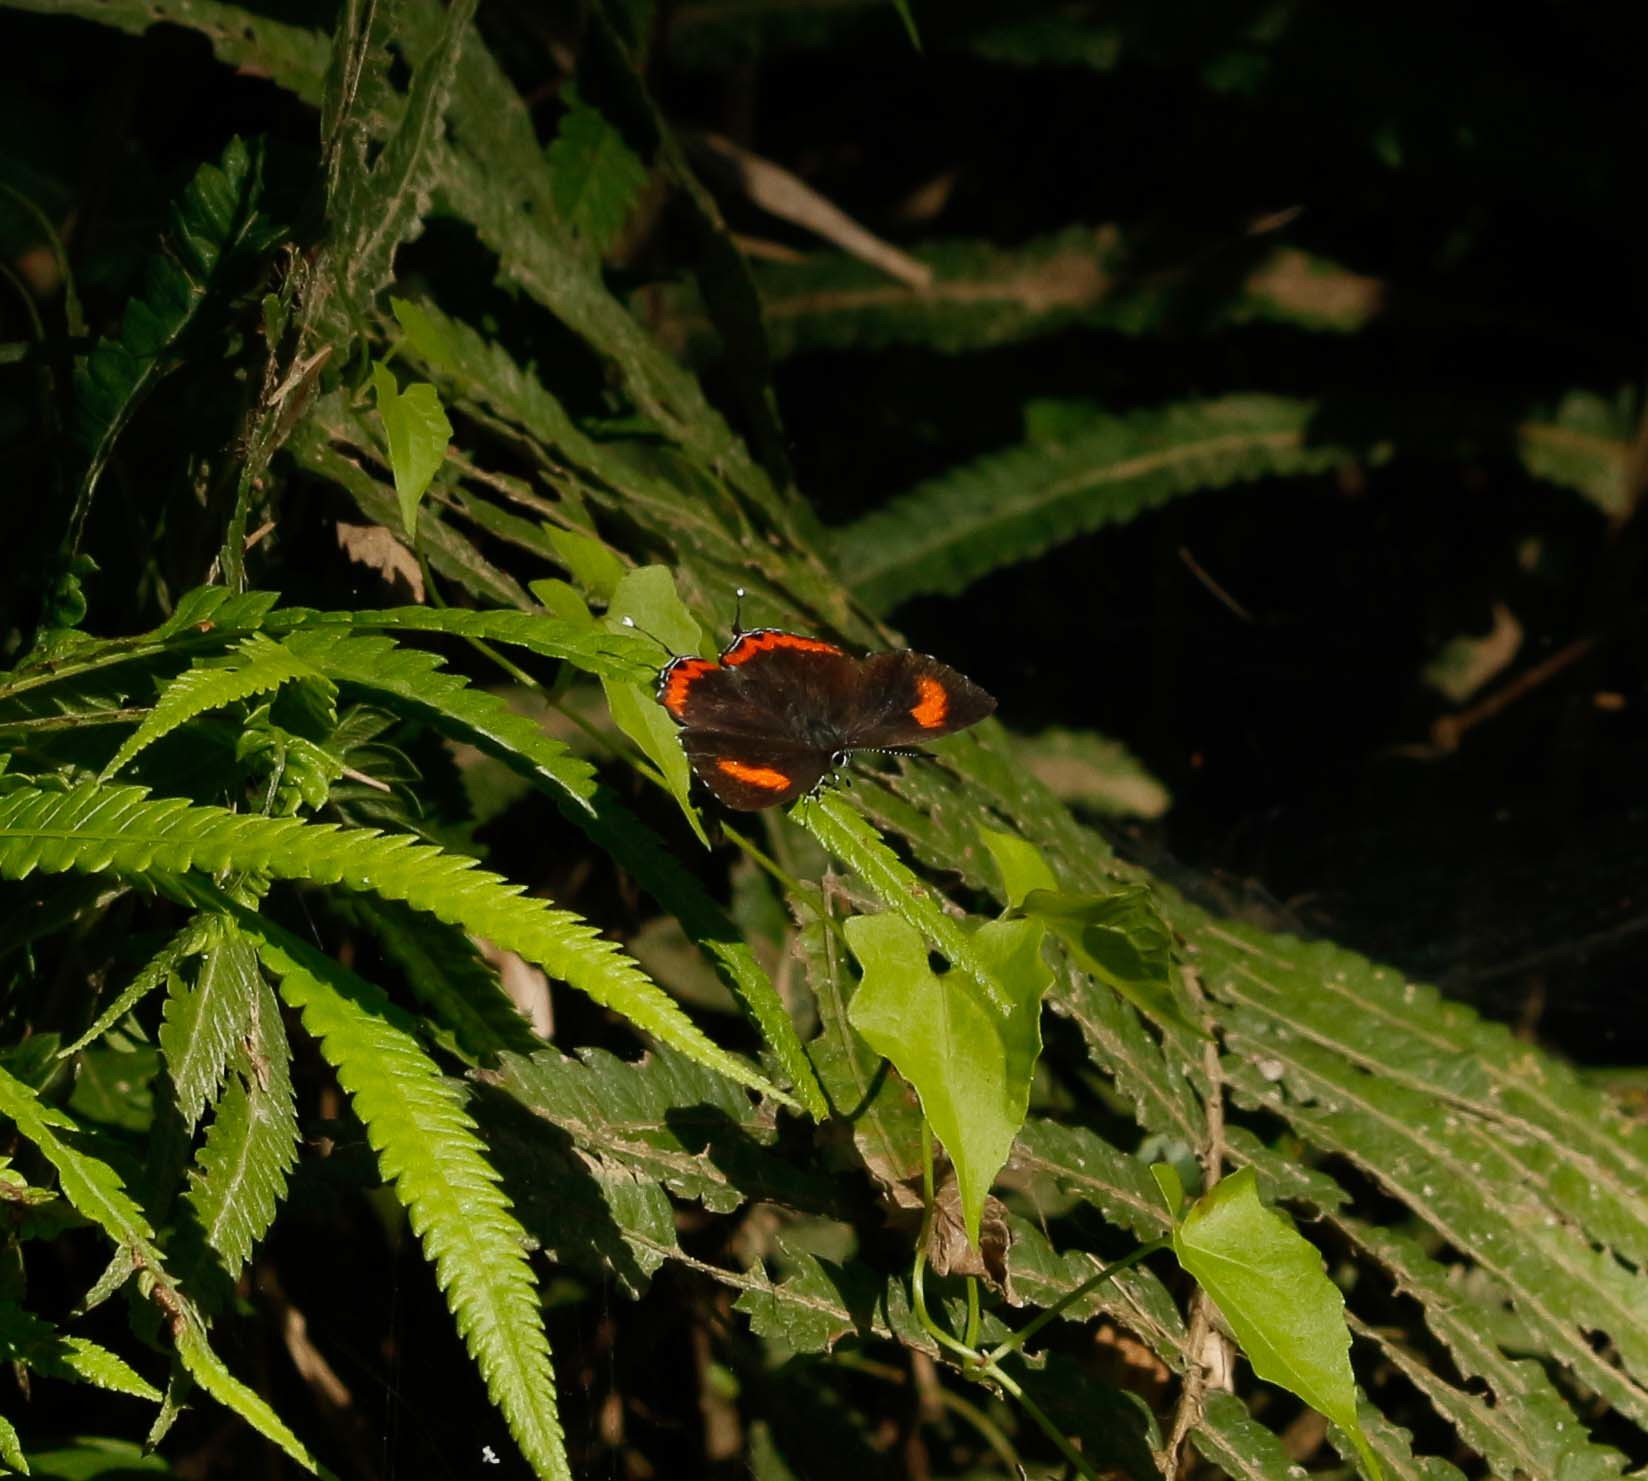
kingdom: Animalia
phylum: Arthropoda
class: Insecta
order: Lepidoptera
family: Lycaenidae
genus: Heliophorus
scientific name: Heliophorus epicles
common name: Purple sapphire
